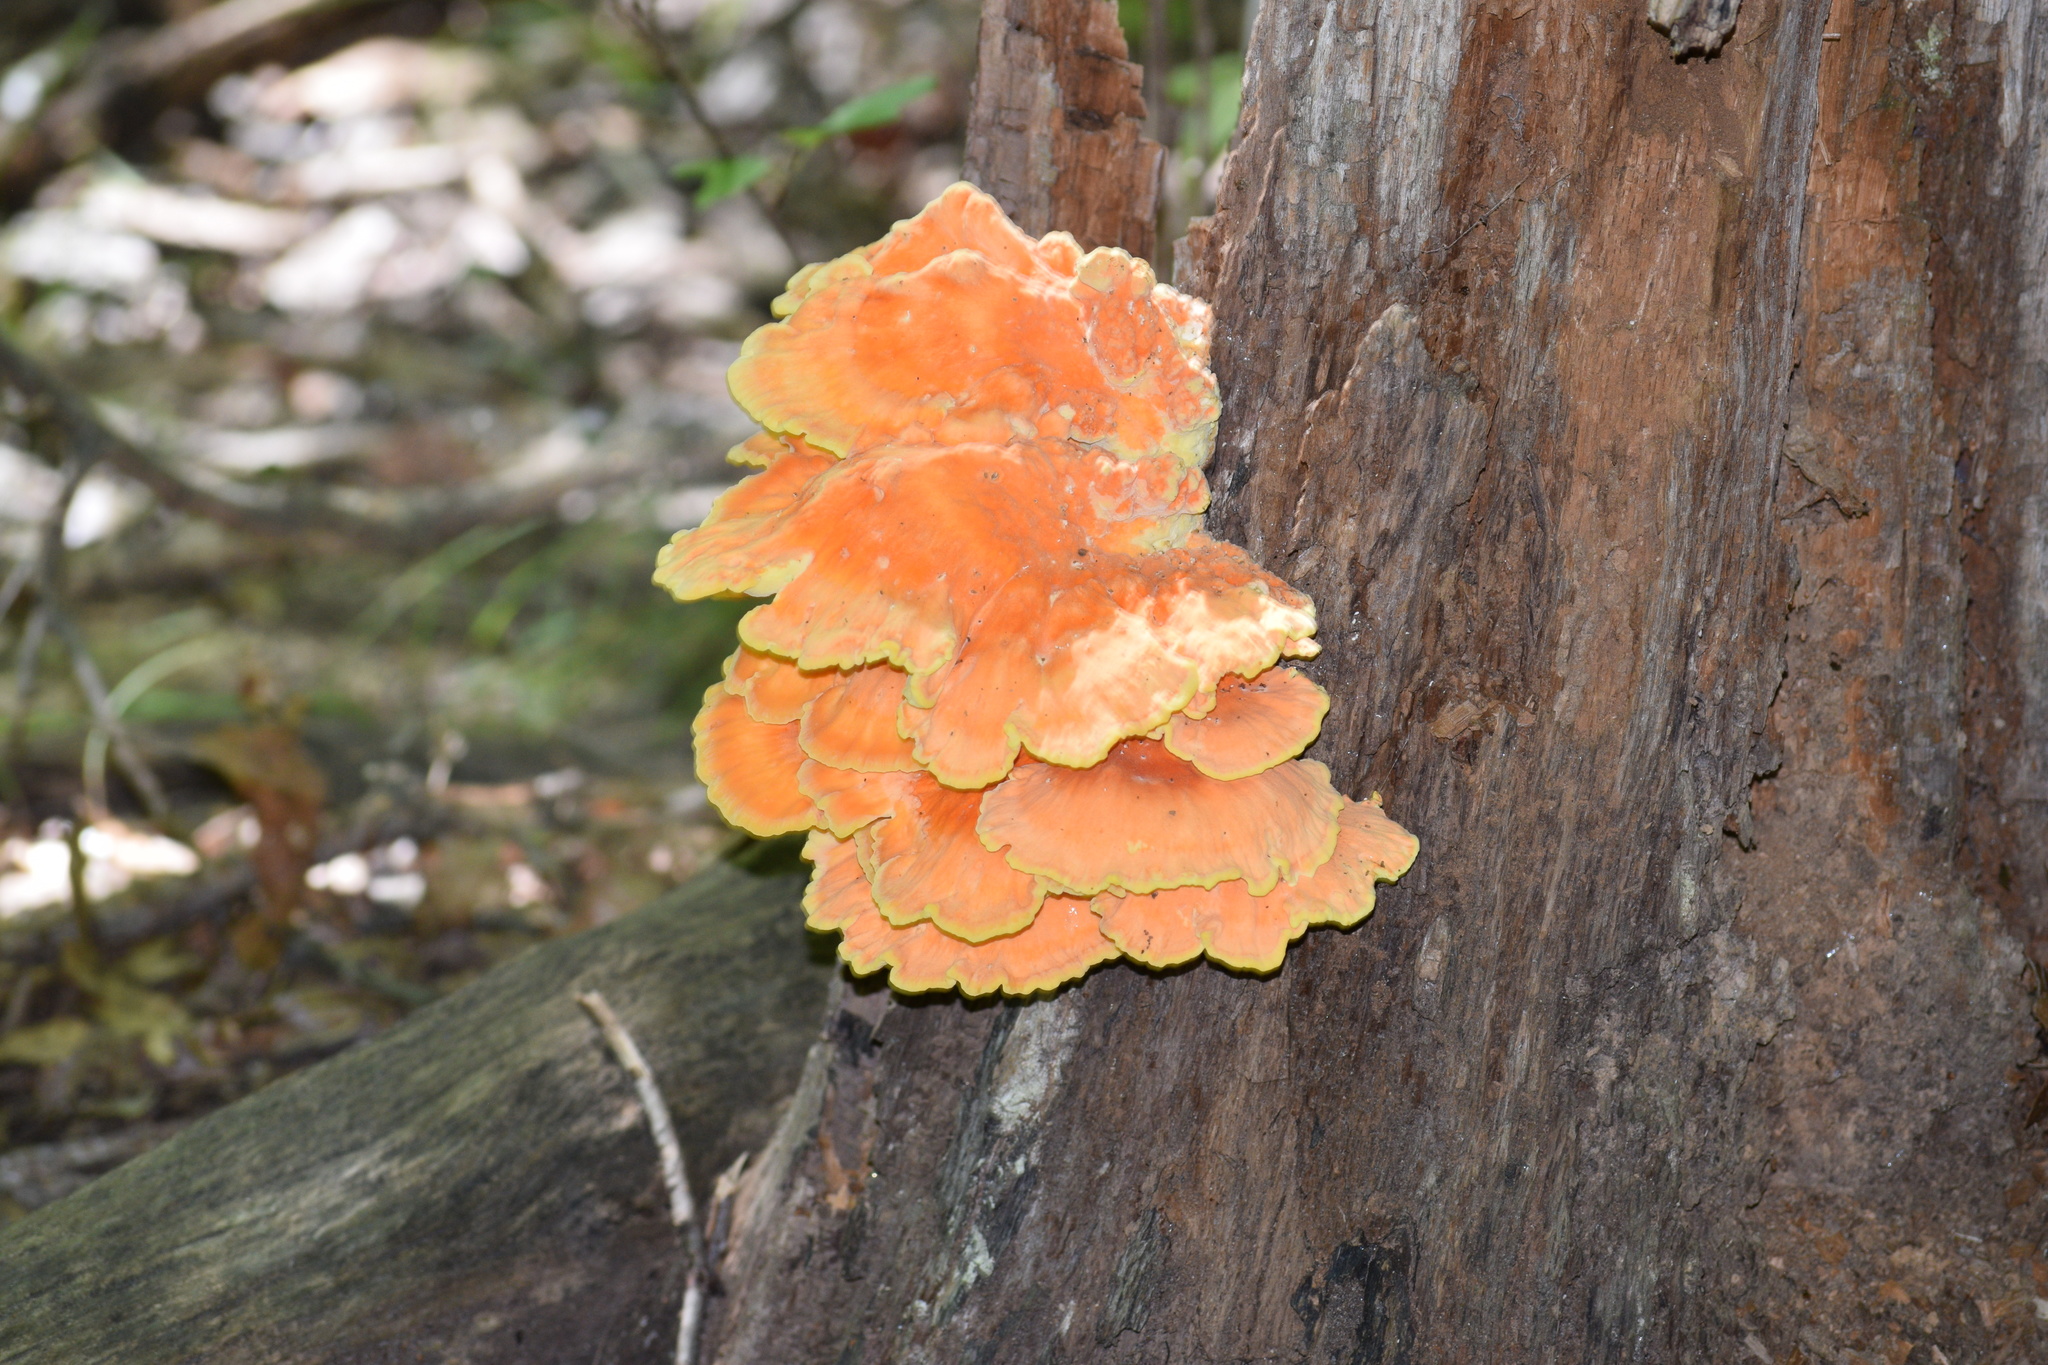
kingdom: Fungi
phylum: Basidiomycota
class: Agaricomycetes
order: Polyporales
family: Laetiporaceae
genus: Laetiporus
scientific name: Laetiporus sulphureus
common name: Chicken of the woods
